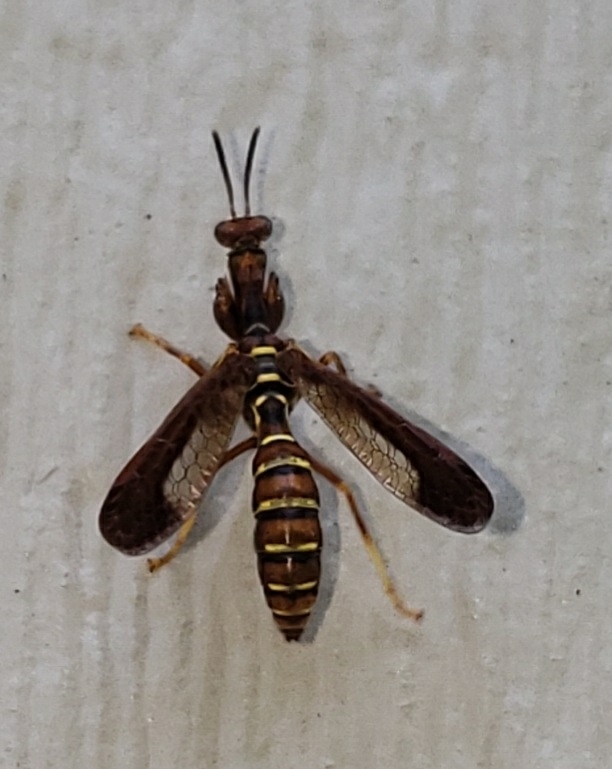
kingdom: Animalia
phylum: Arthropoda
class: Insecta
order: Neuroptera
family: Mantispidae
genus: Climaciella
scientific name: Climaciella brunnea
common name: Brown wasp mantidfly
